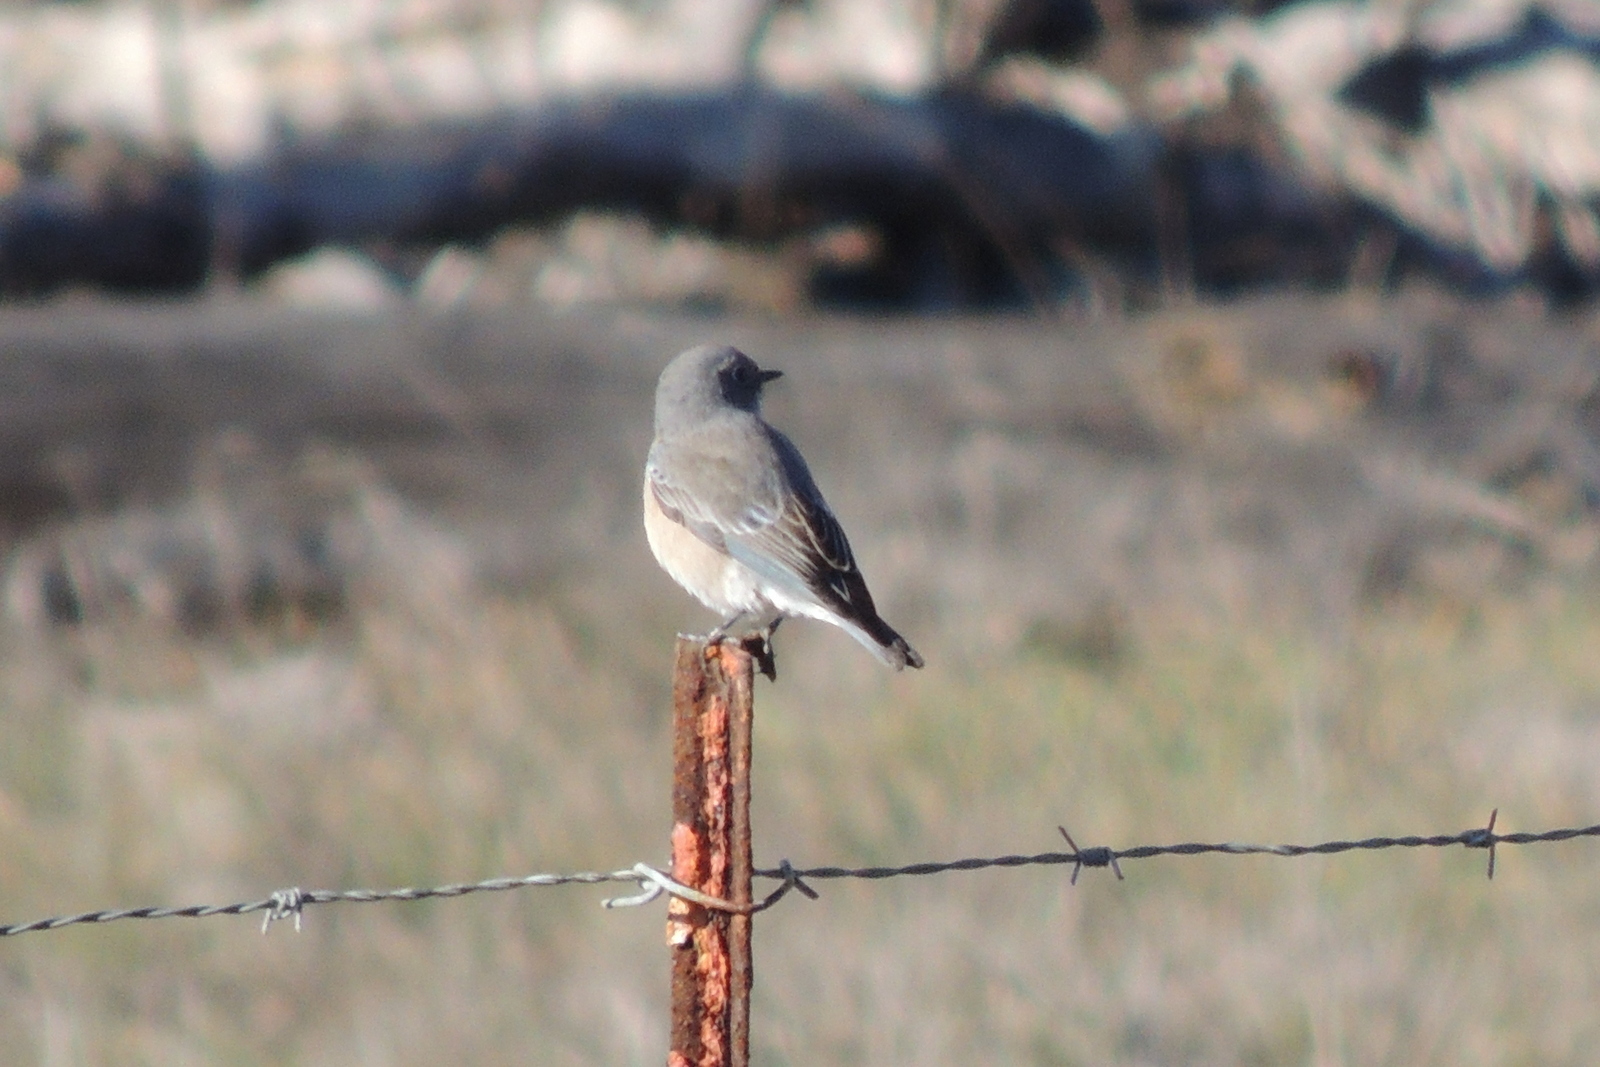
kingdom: Animalia
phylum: Chordata
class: Aves
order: Passeriformes
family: Turdidae
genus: Sialia
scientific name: Sialia mexicana
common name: Western bluebird
